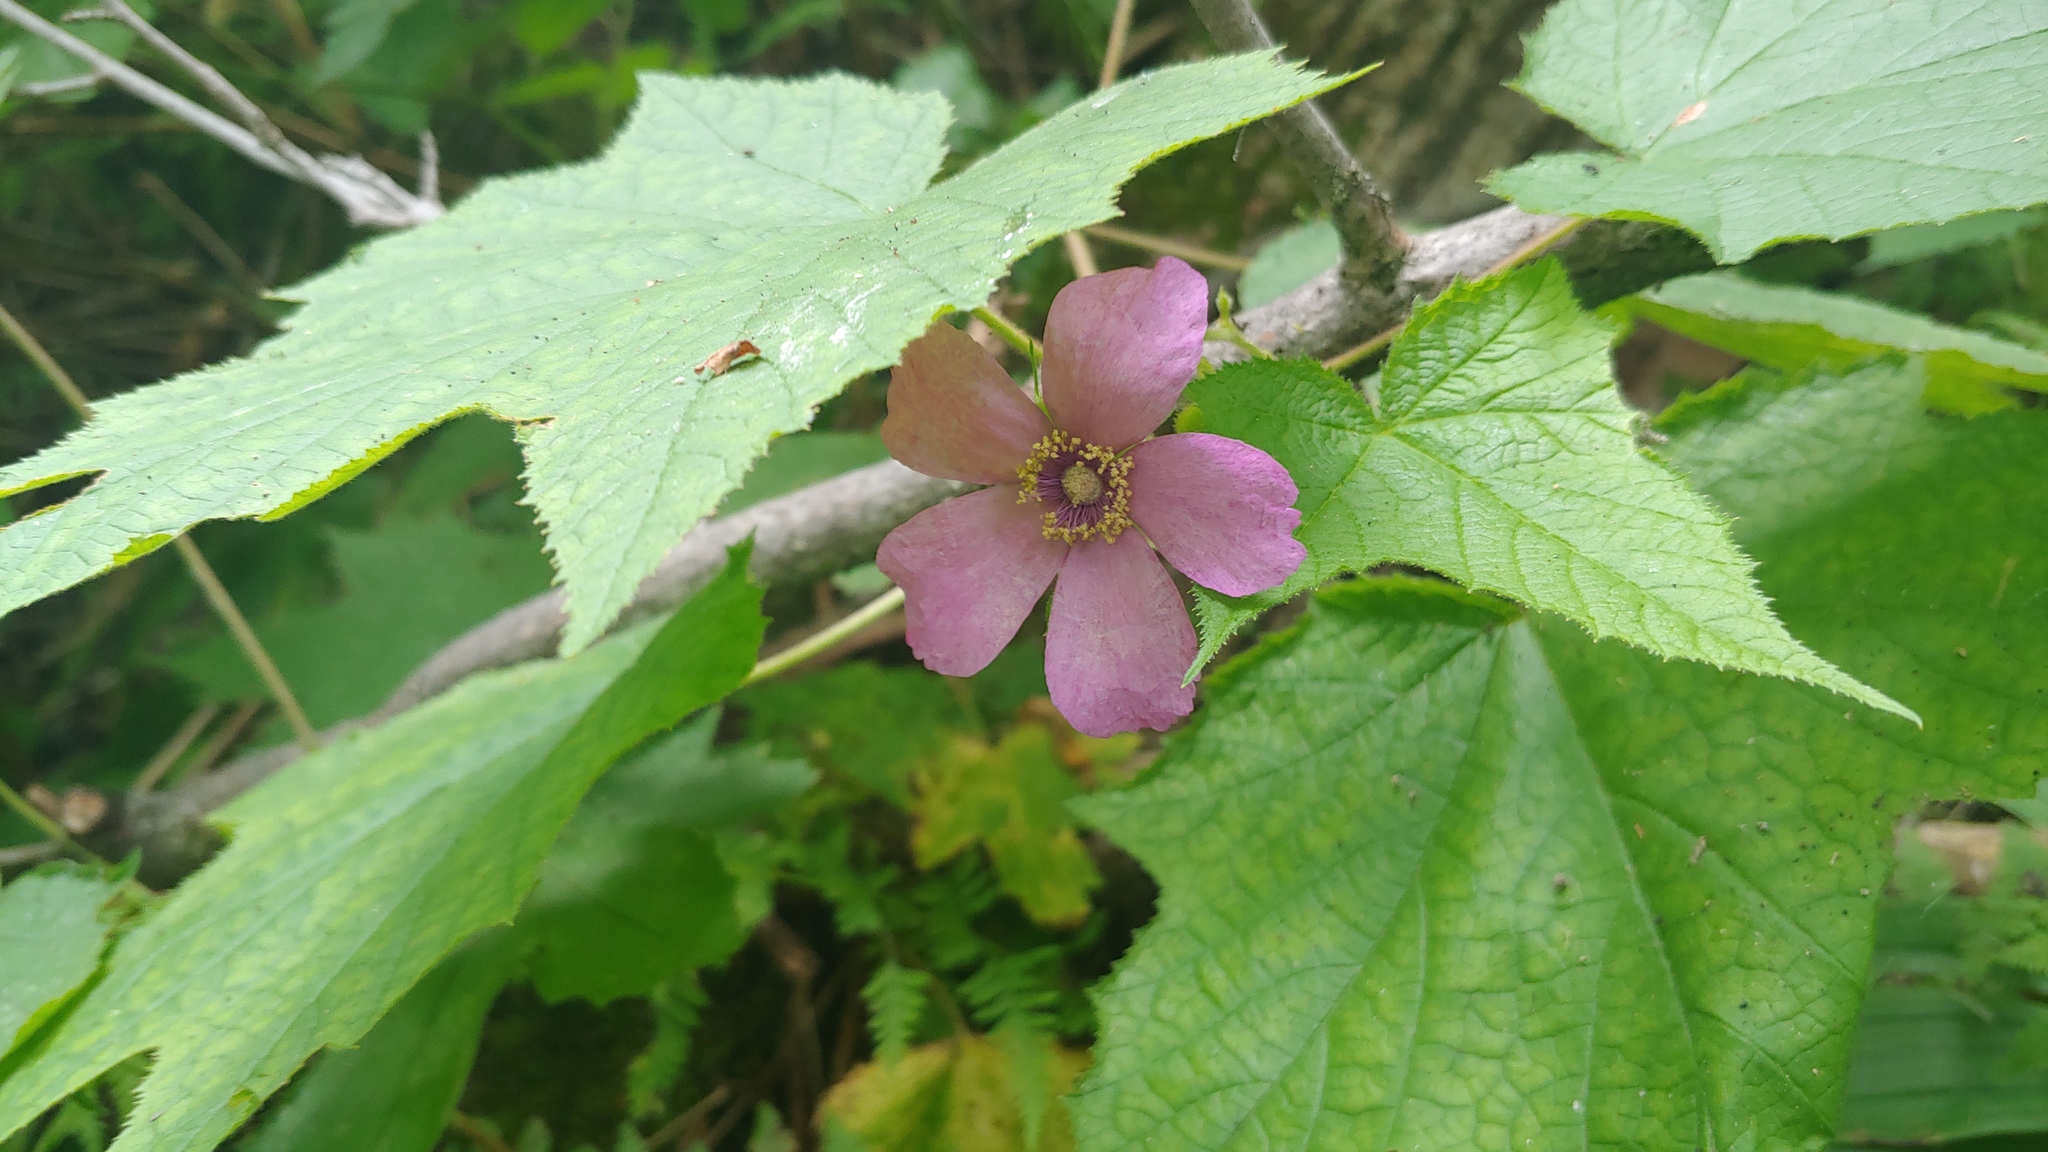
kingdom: Plantae
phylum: Tracheophyta
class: Magnoliopsida
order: Rosales
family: Rosaceae
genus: Rubus
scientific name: Rubus odoratus
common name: Purple-flowered raspberry
